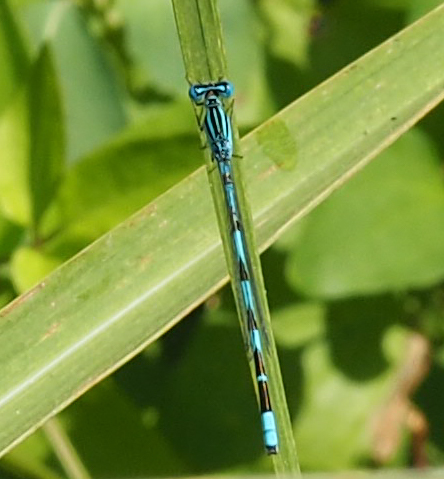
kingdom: Animalia
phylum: Arthropoda
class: Insecta
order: Odonata
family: Coenagrionidae
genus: Enallagma
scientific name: Enallagma durum
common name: Big bluet
